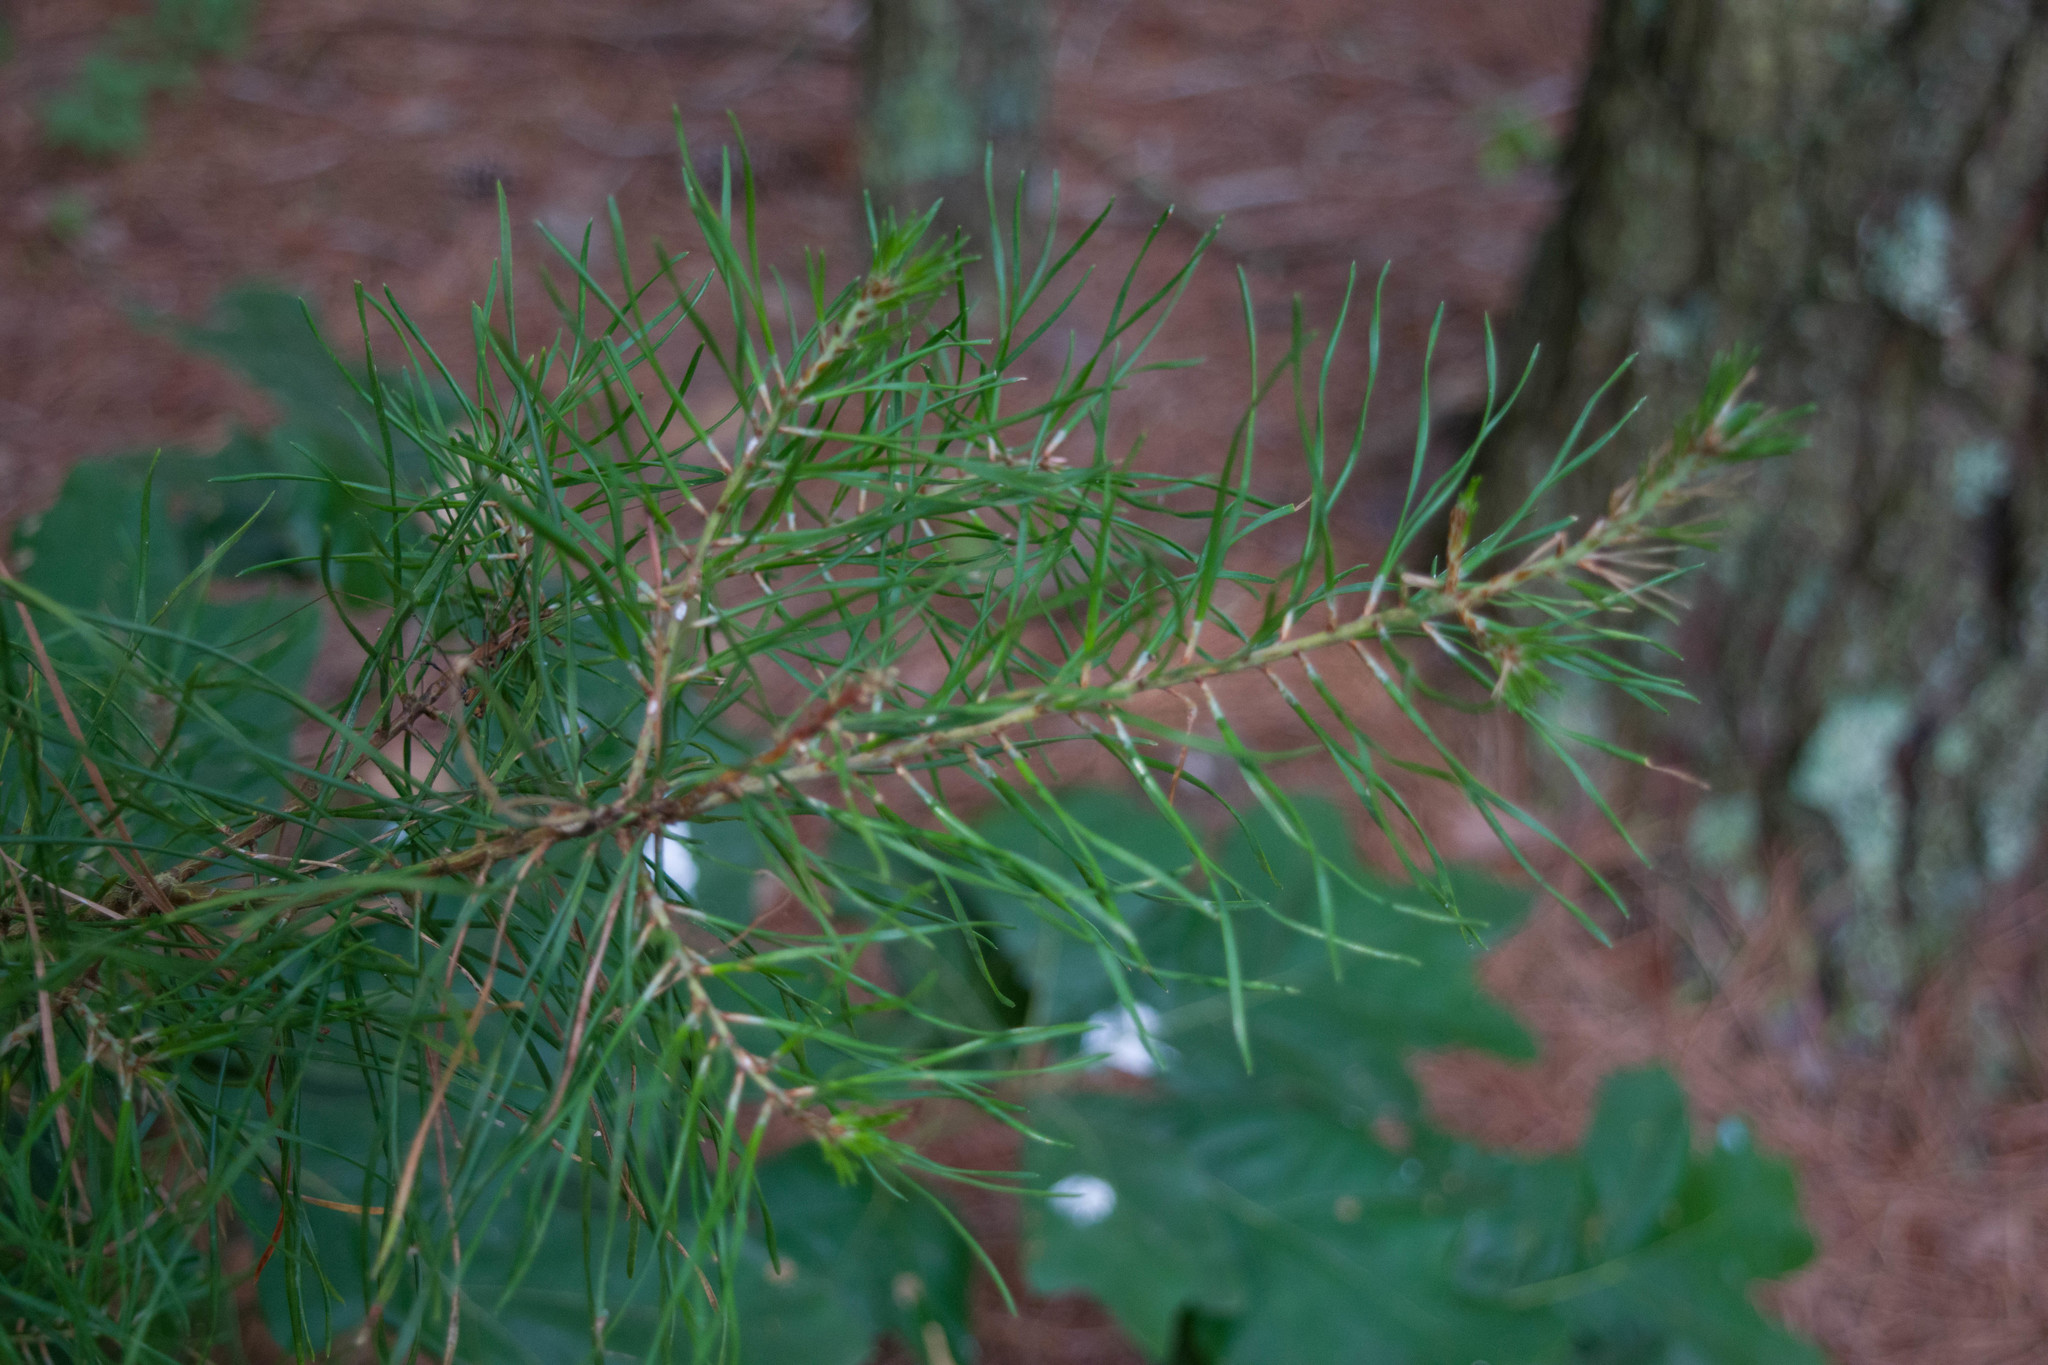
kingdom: Plantae
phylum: Tracheophyta
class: Pinopsida
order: Pinales
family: Pinaceae
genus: Pinus
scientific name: Pinus virginiana
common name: Scrub pine
